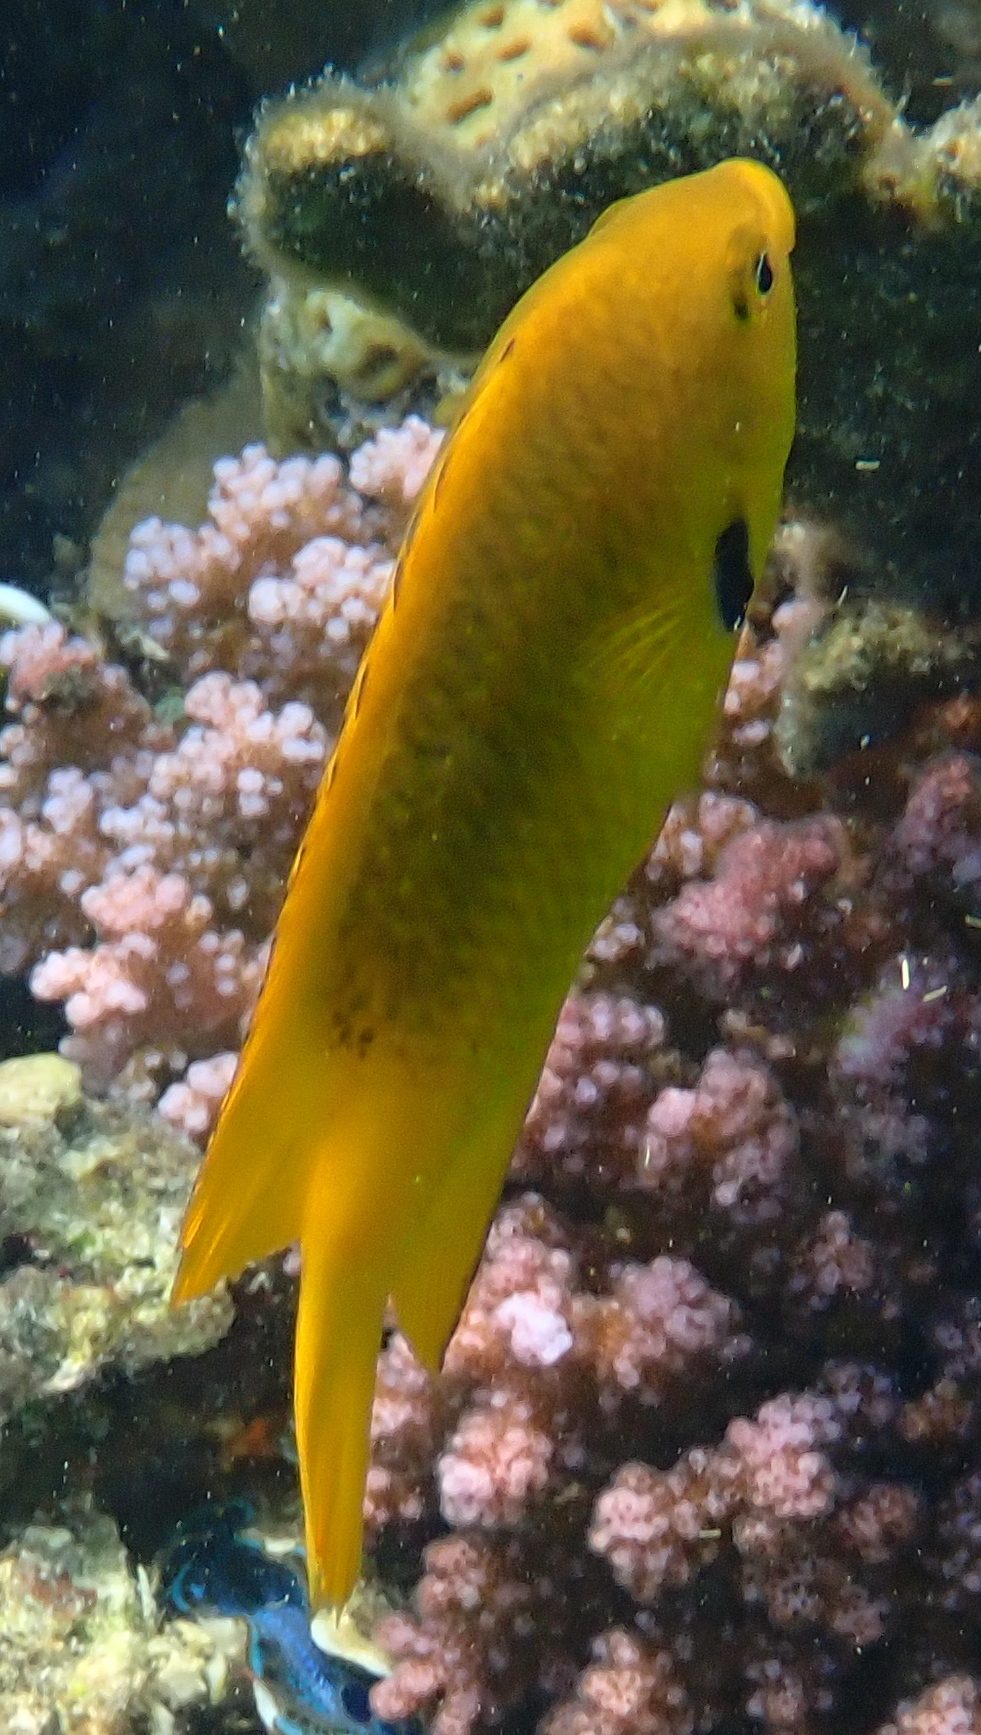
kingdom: Animalia
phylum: Chordata
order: Perciformes
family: Pomacentridae
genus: Pomacentrus
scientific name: Pomacentrus sulfureus
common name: Sulfur damsel
